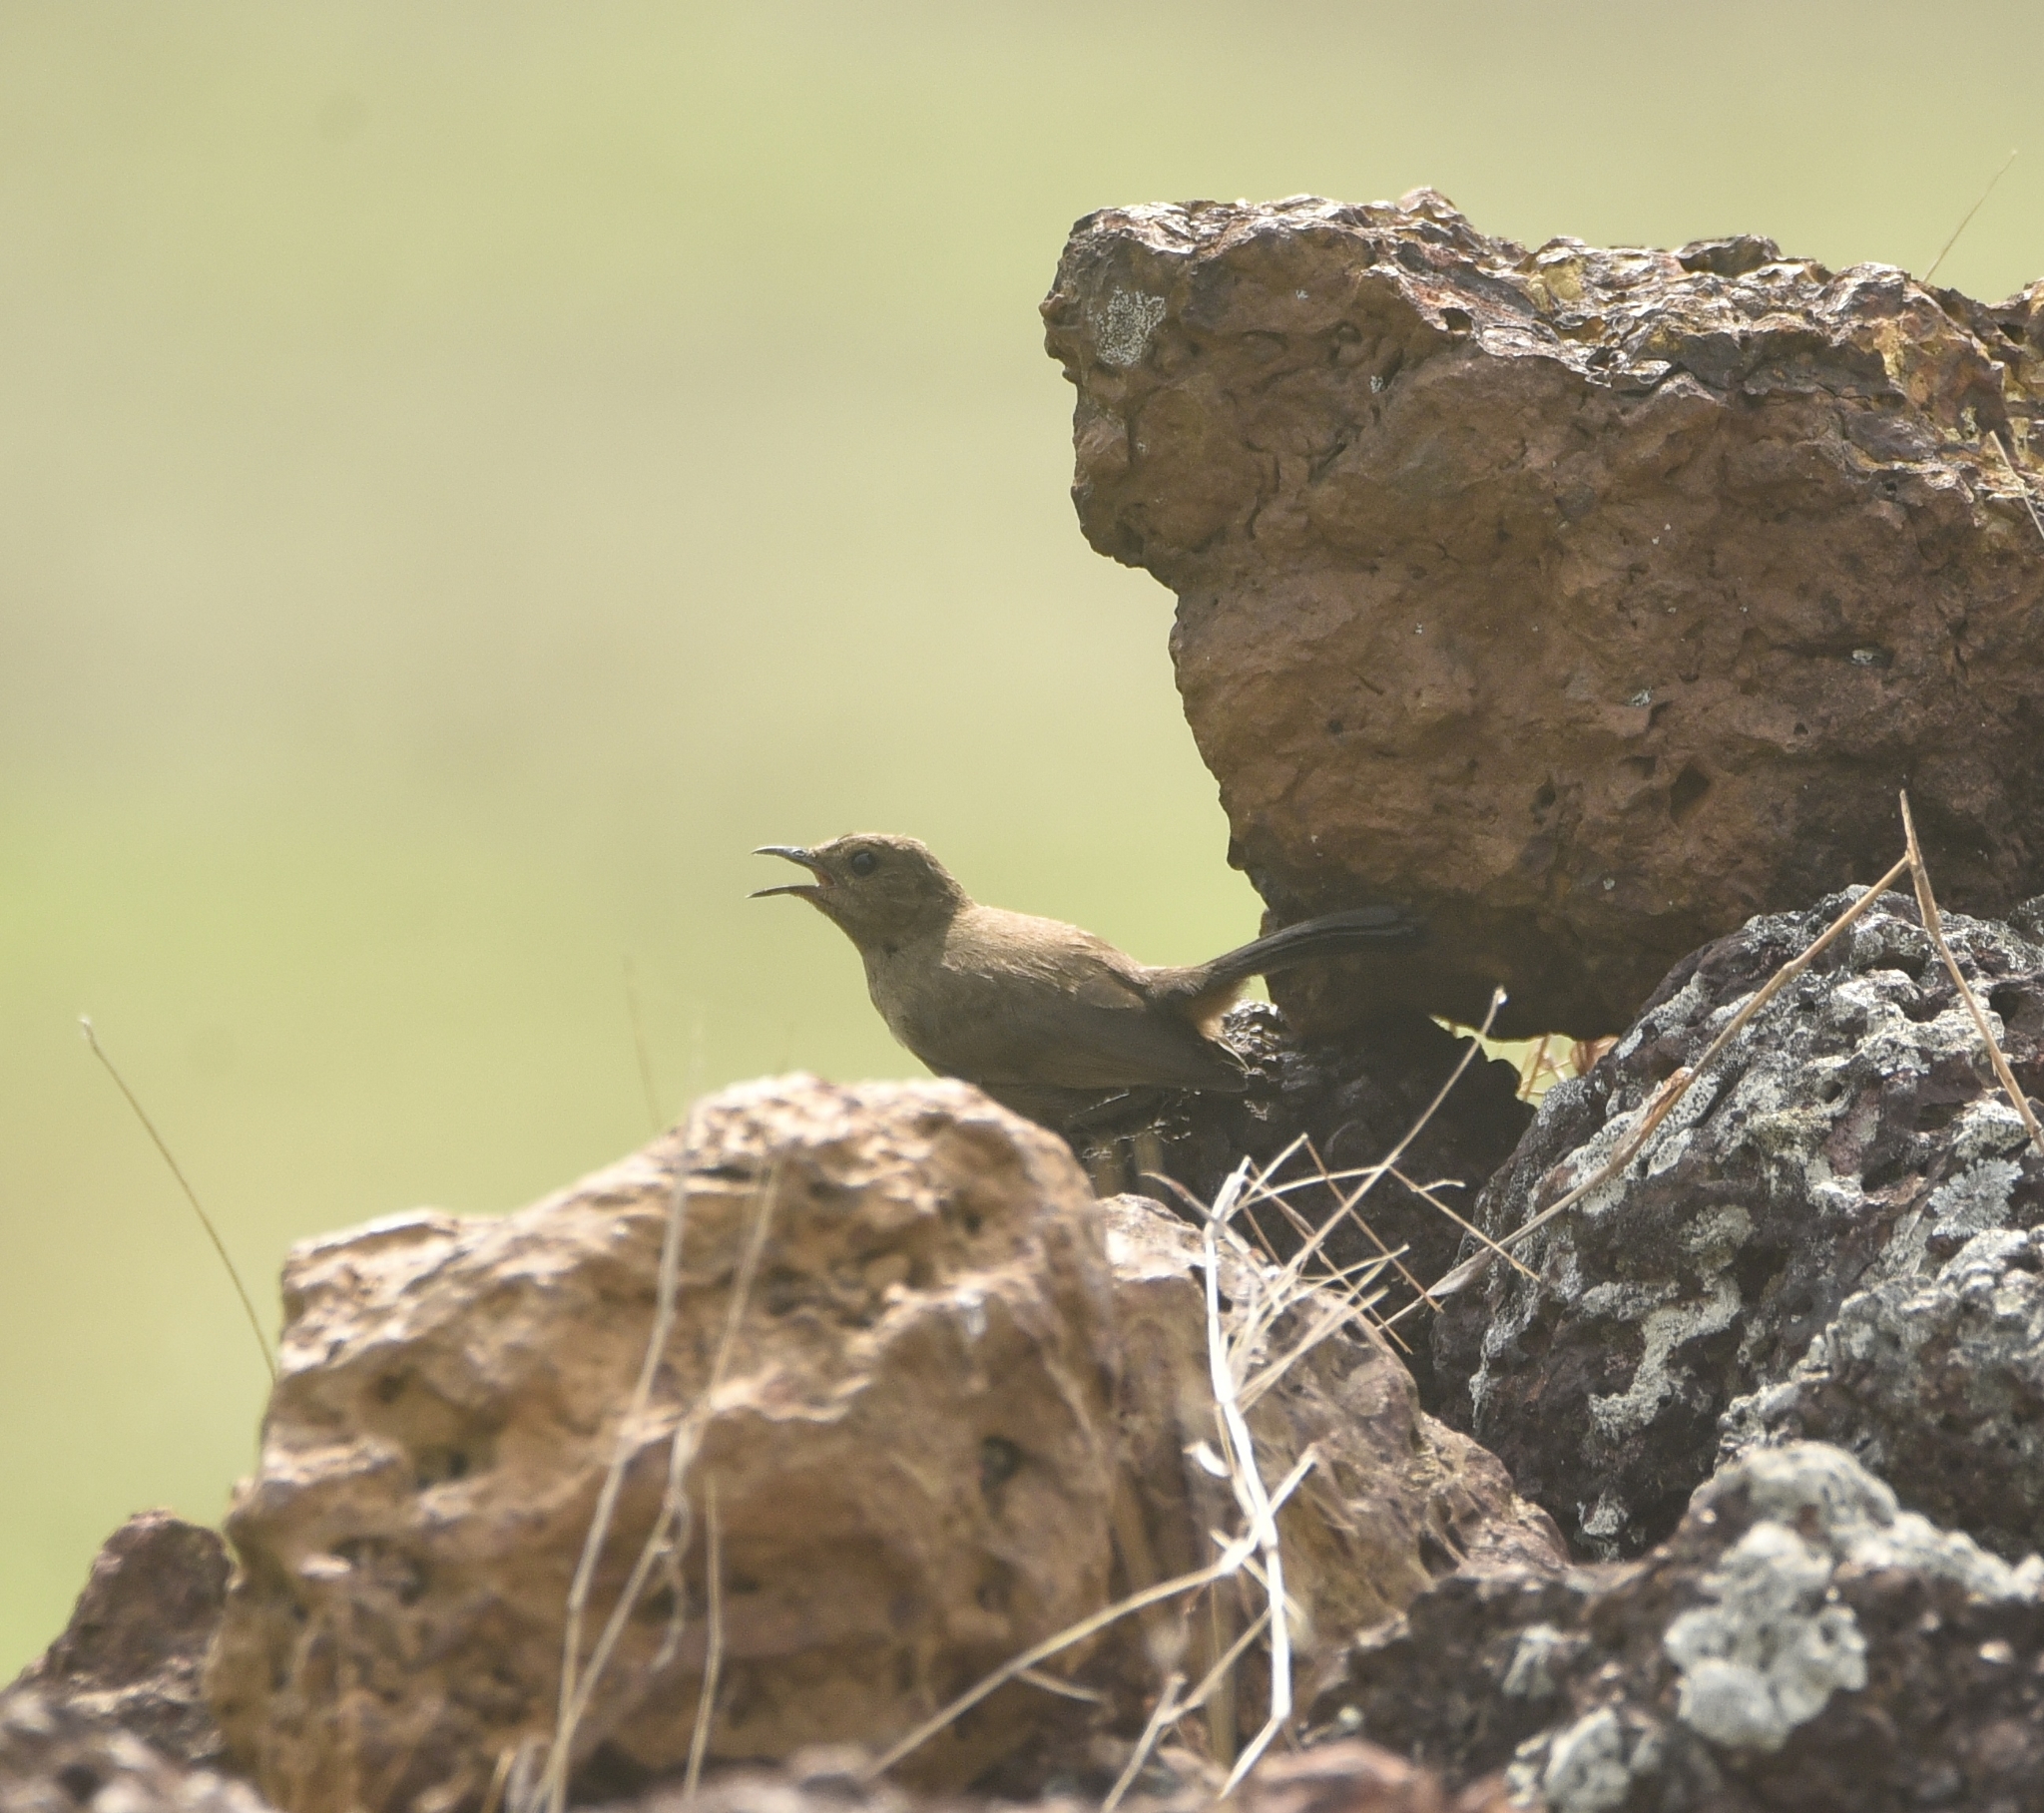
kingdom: Animalia
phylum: Chordata
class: Aves
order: Passeriformes
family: Muscicapidae
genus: Saxicoloides
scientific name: Saxicoloides fulicatus
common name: Indian robin
